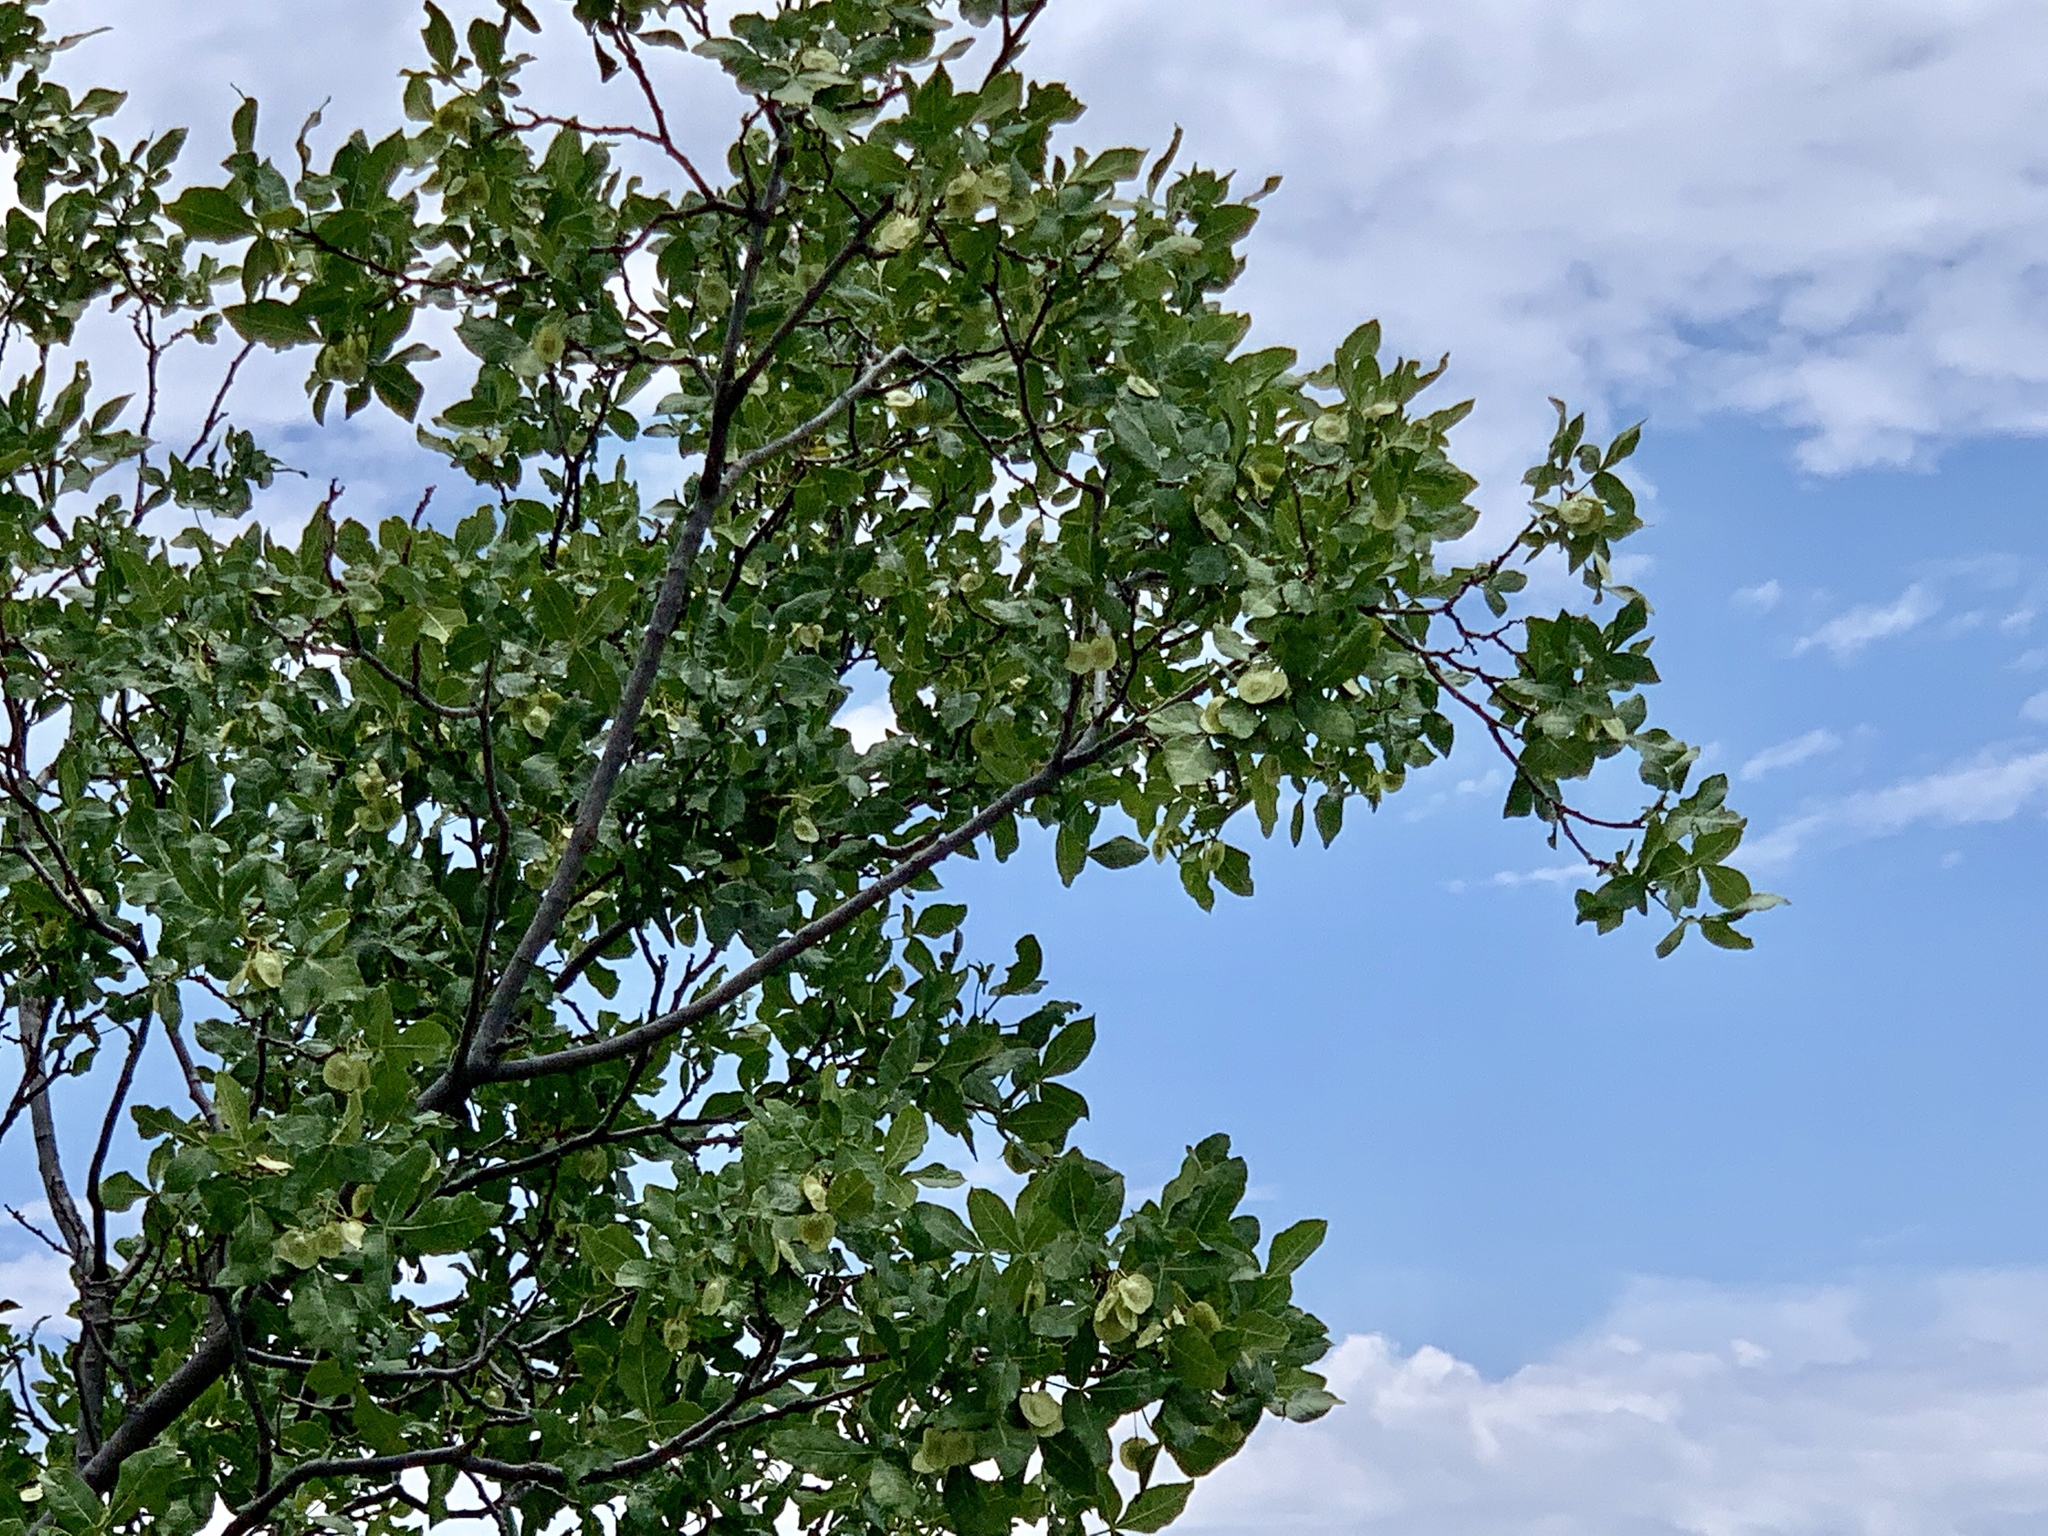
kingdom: Plantae
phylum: Tracheophyta
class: Magnoliopsida
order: Sapindales
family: Rutaceae
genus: Ptelea
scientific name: Ptelea trifoliata
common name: Common hop-tree
